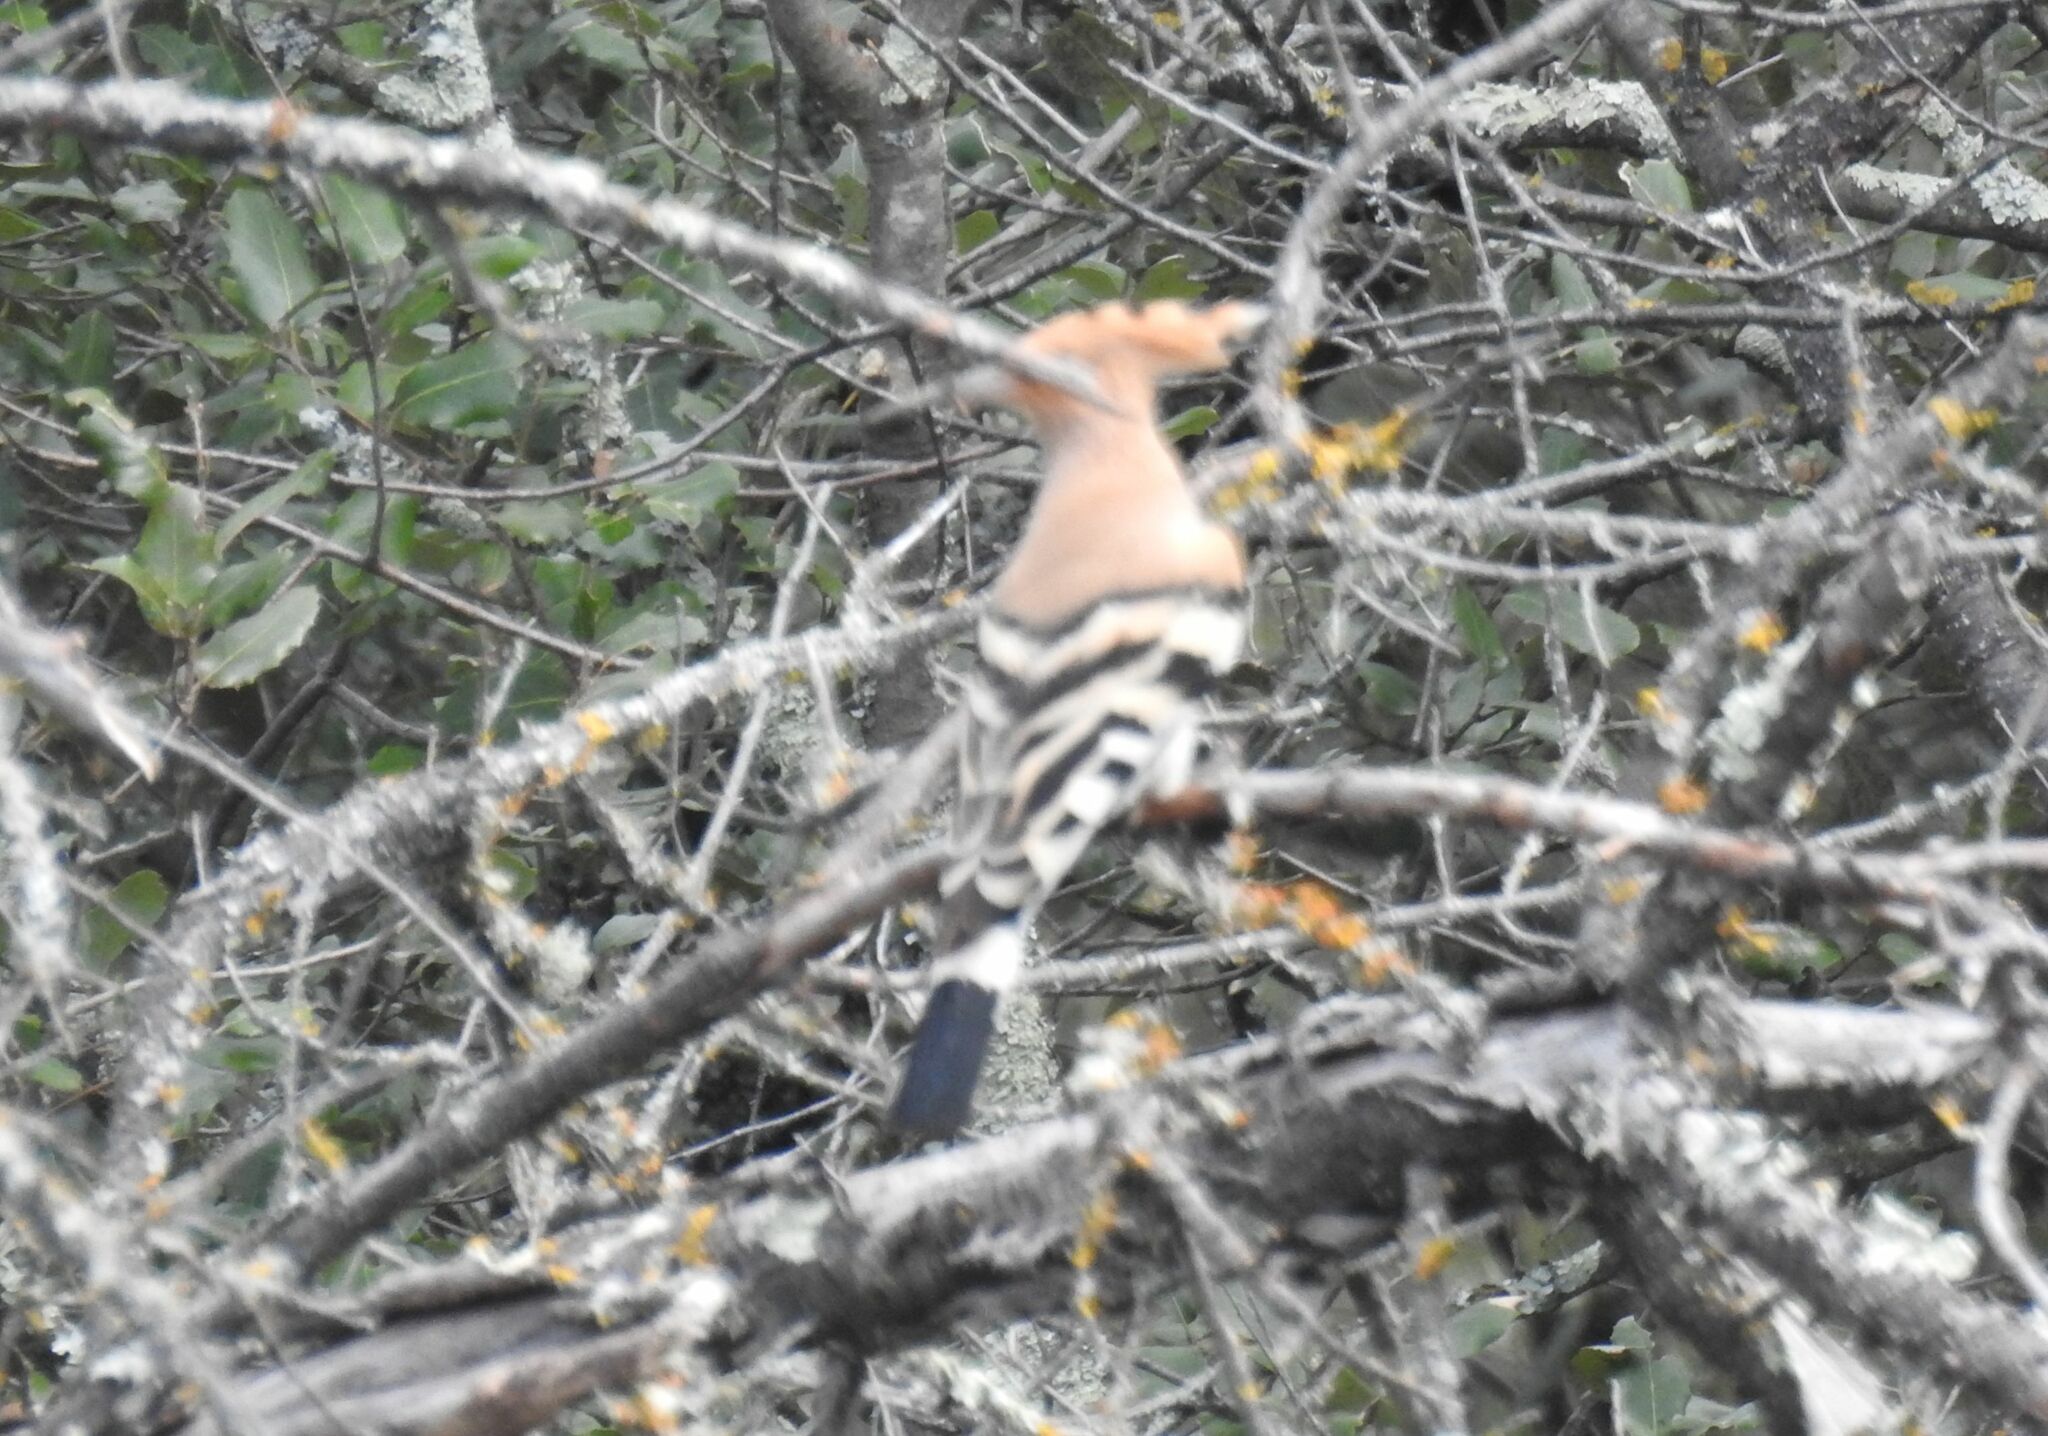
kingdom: Animalia
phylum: Chordata
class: Aves
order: Bucerotiformes
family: Upupidae
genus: Upupa
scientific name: Upupa epops
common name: Eurasian hoopoe
